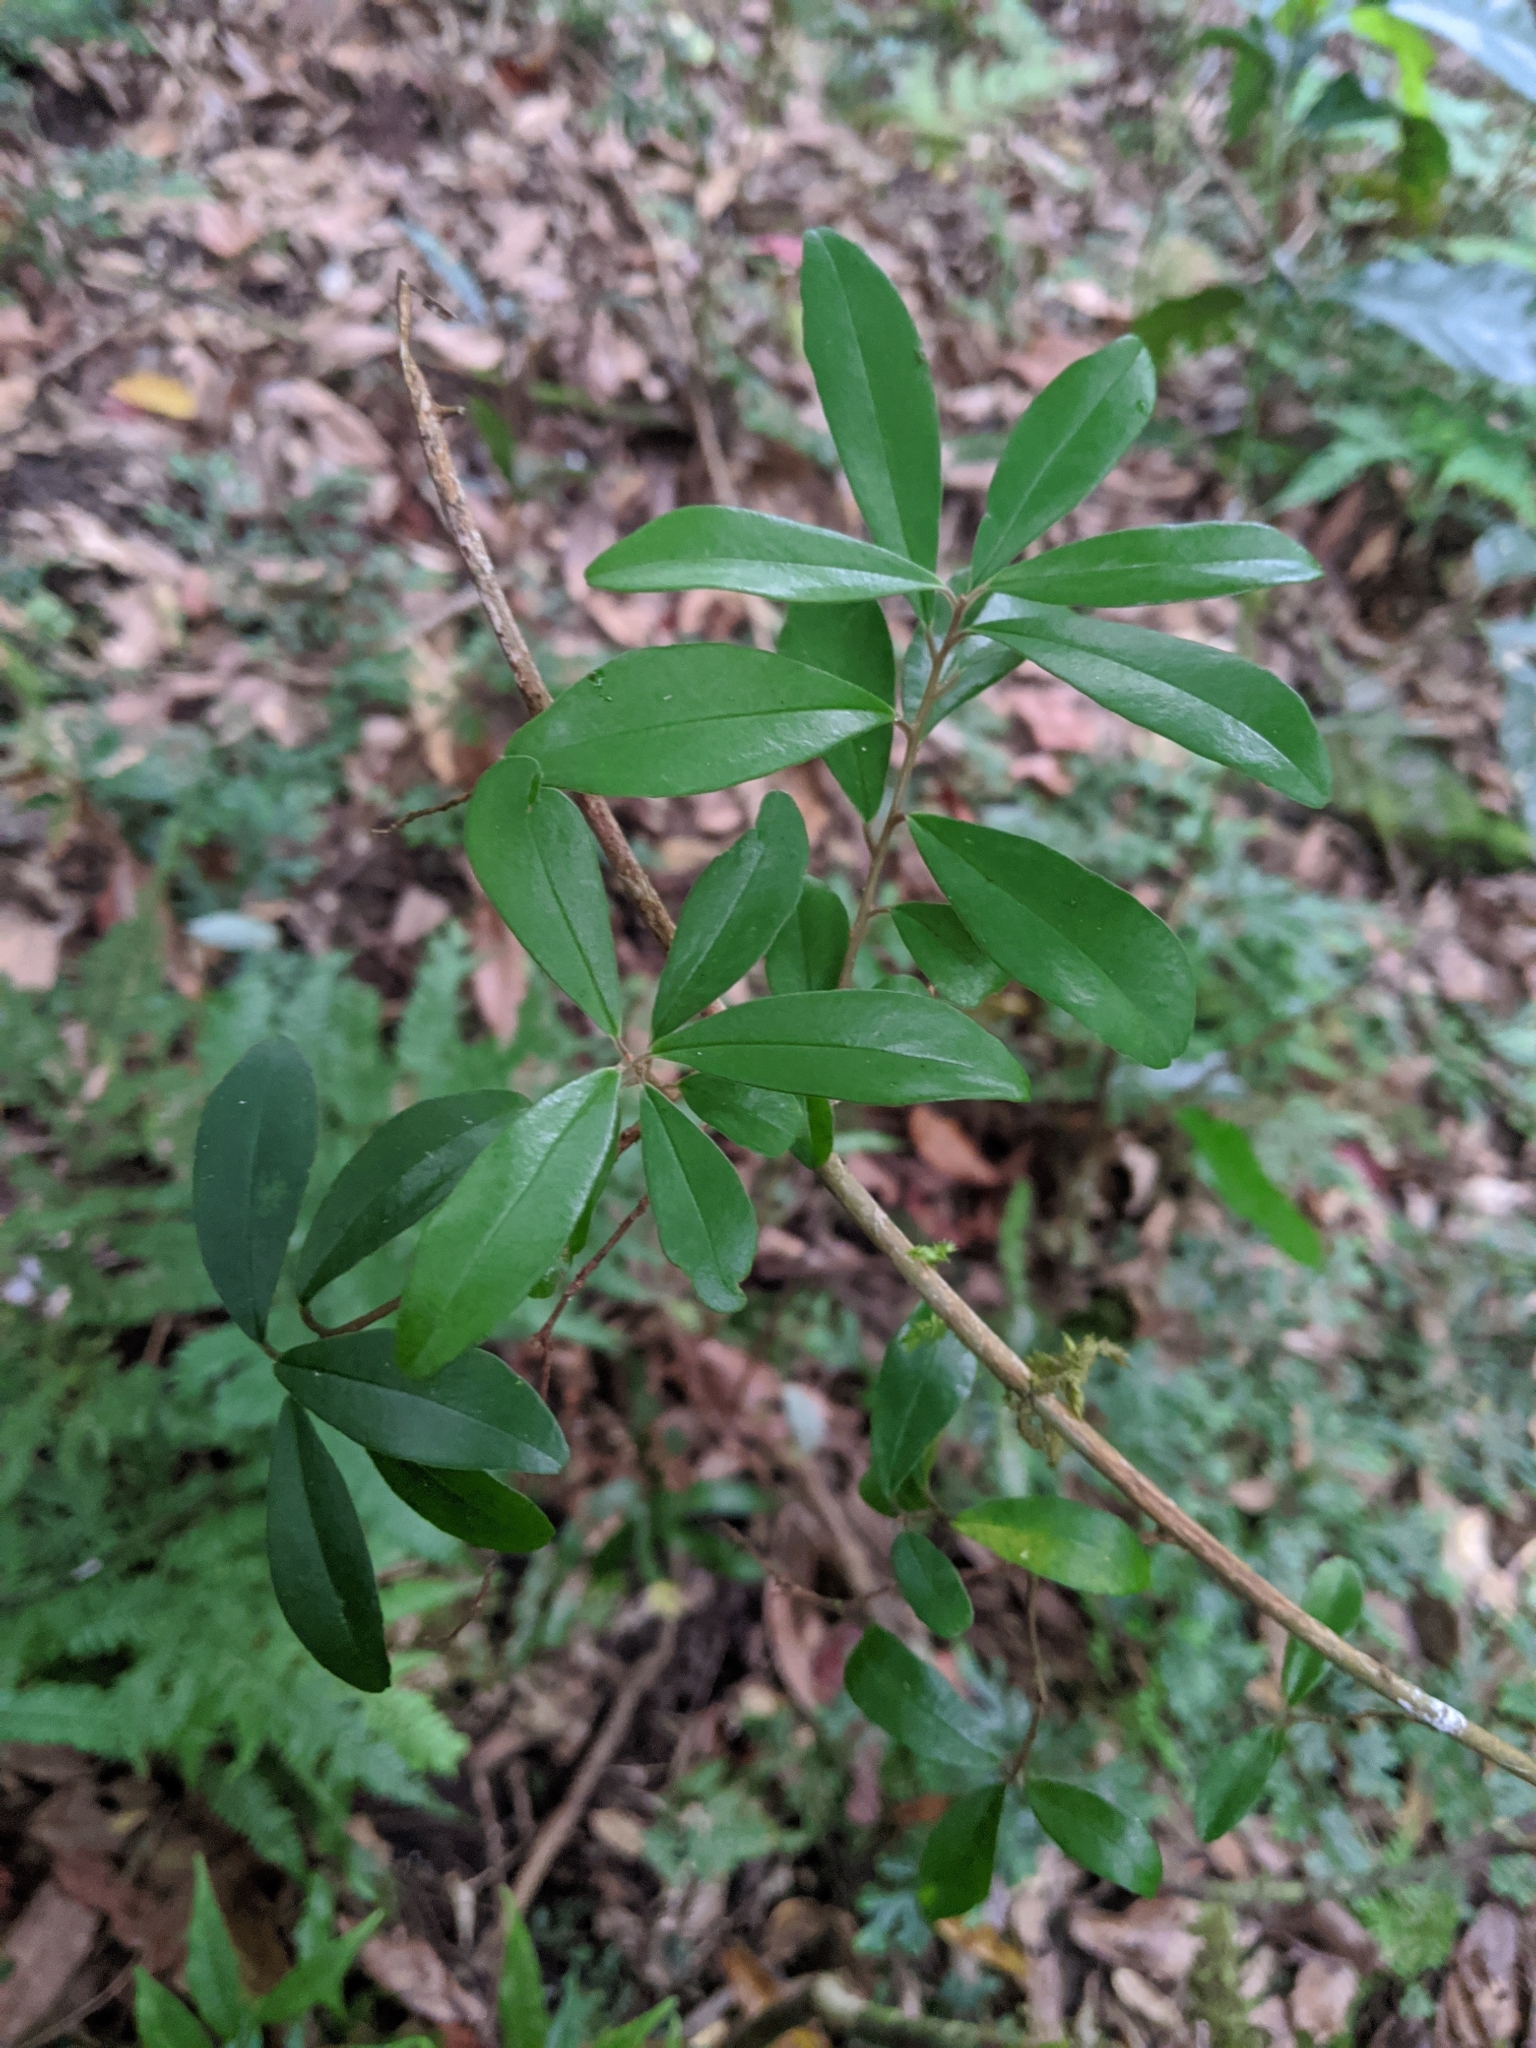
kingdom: Plantae
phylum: Tracheophyta
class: Magnoliopsida
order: Ericales
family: Primulaceae
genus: Embelia
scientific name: Embelia laeta
